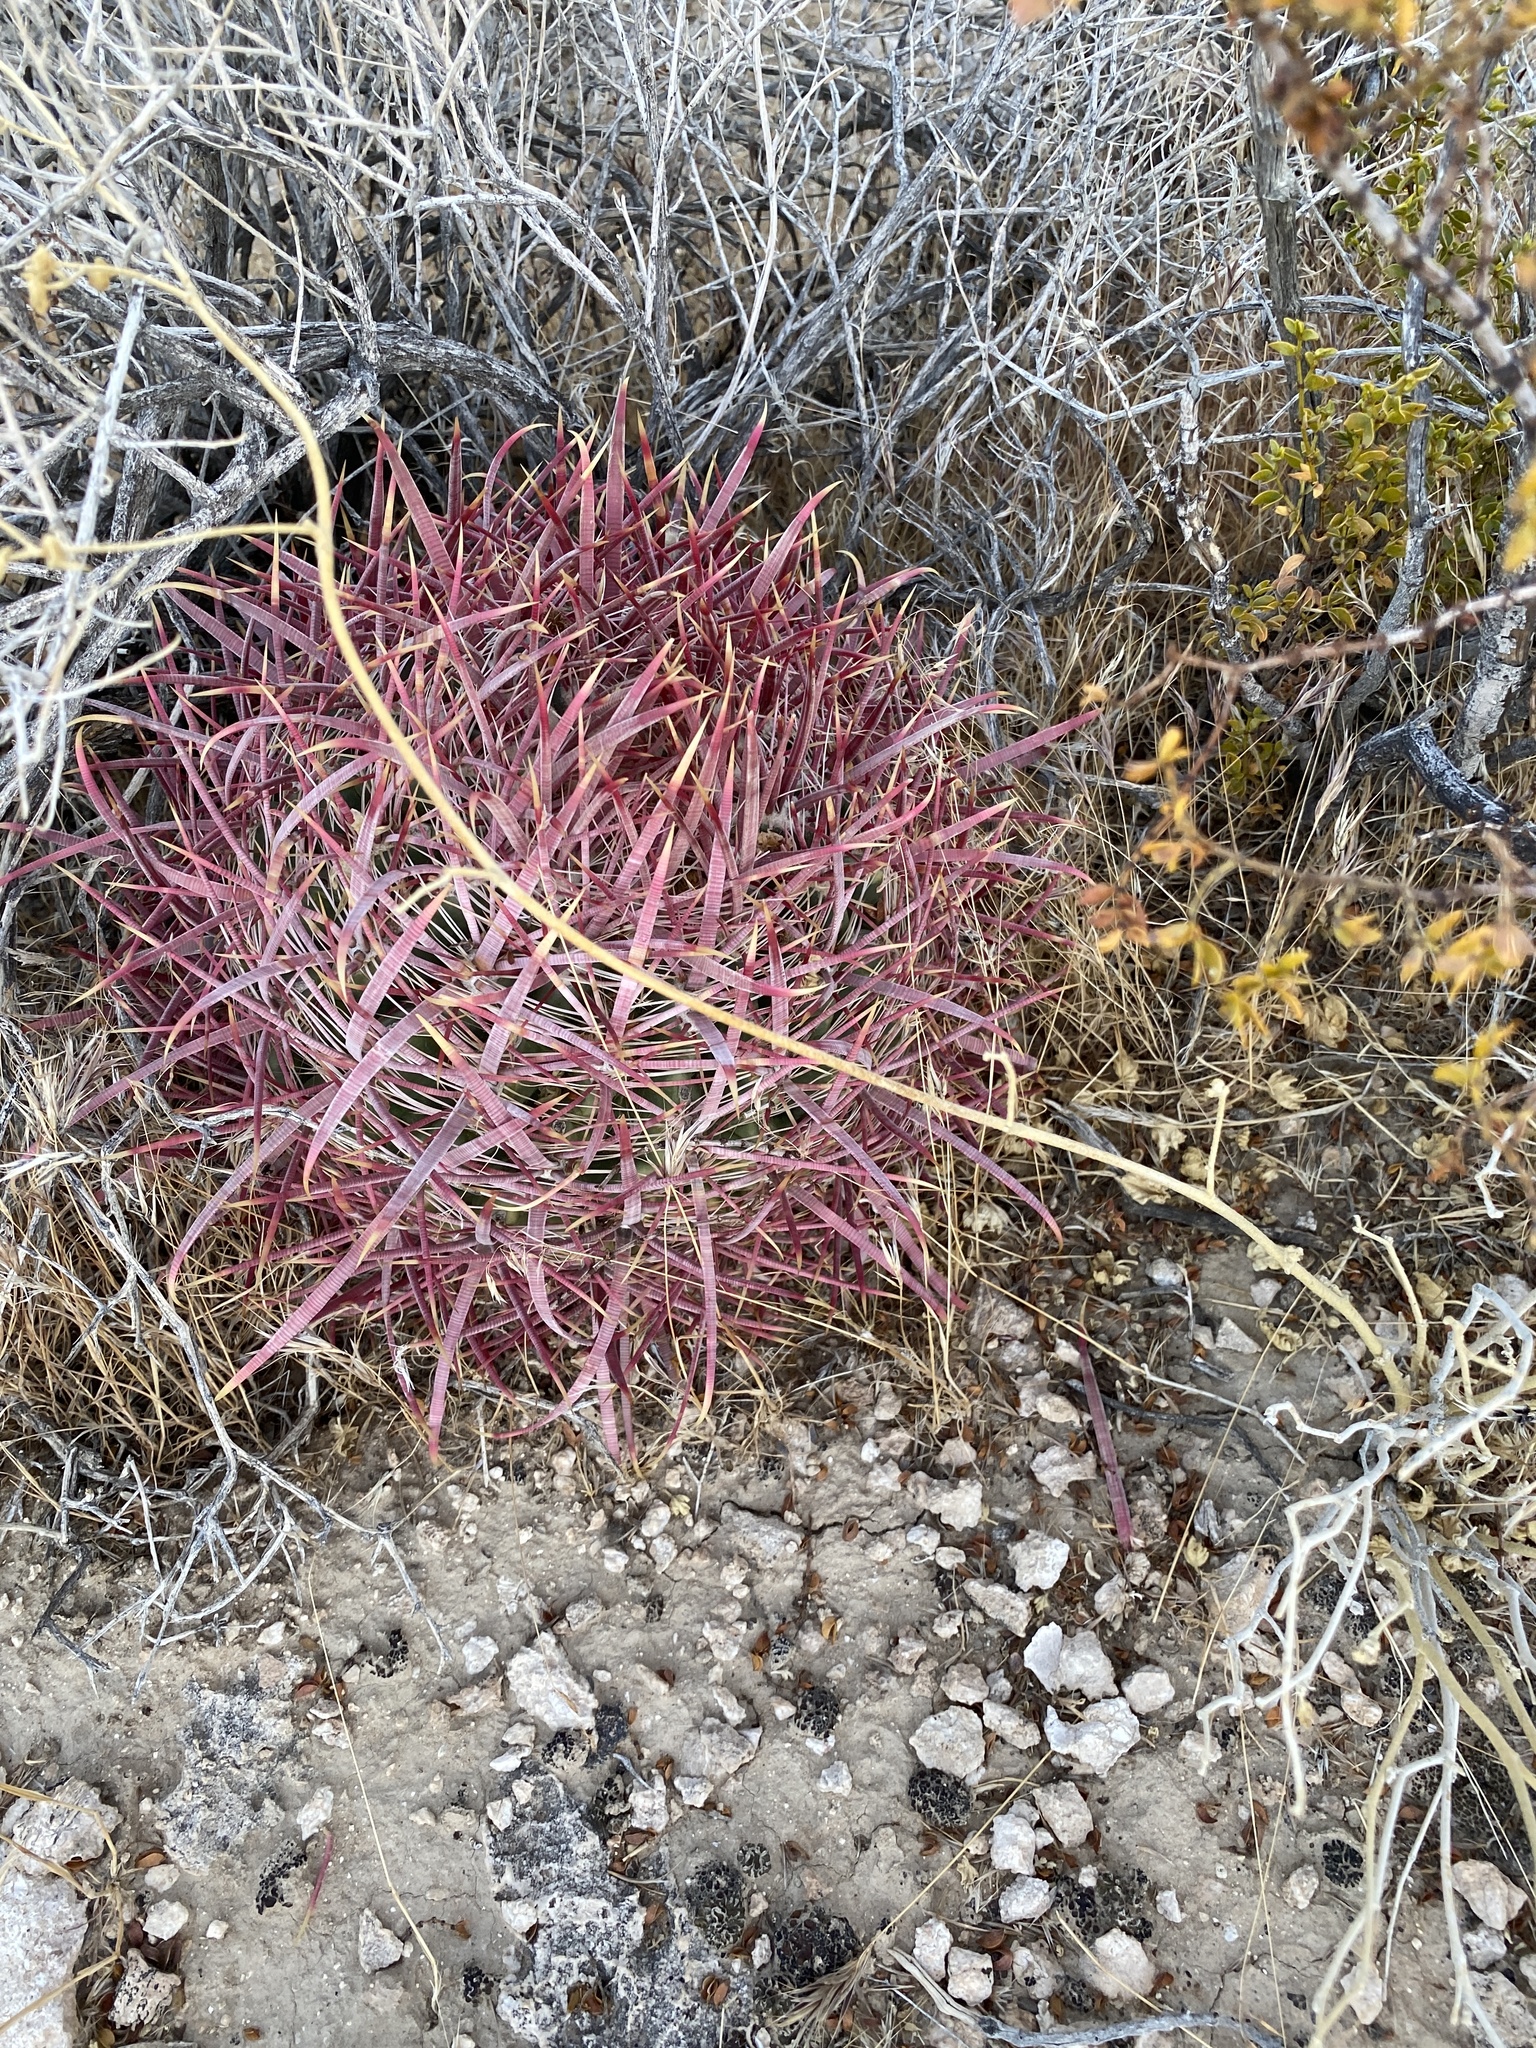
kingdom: Plantae
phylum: Tracheophyta
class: Magnoliopsida
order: Caryophyllales
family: Cactaceae
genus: Ferocactus
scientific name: Ferocactus cylindraceus
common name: California barrel cactus
